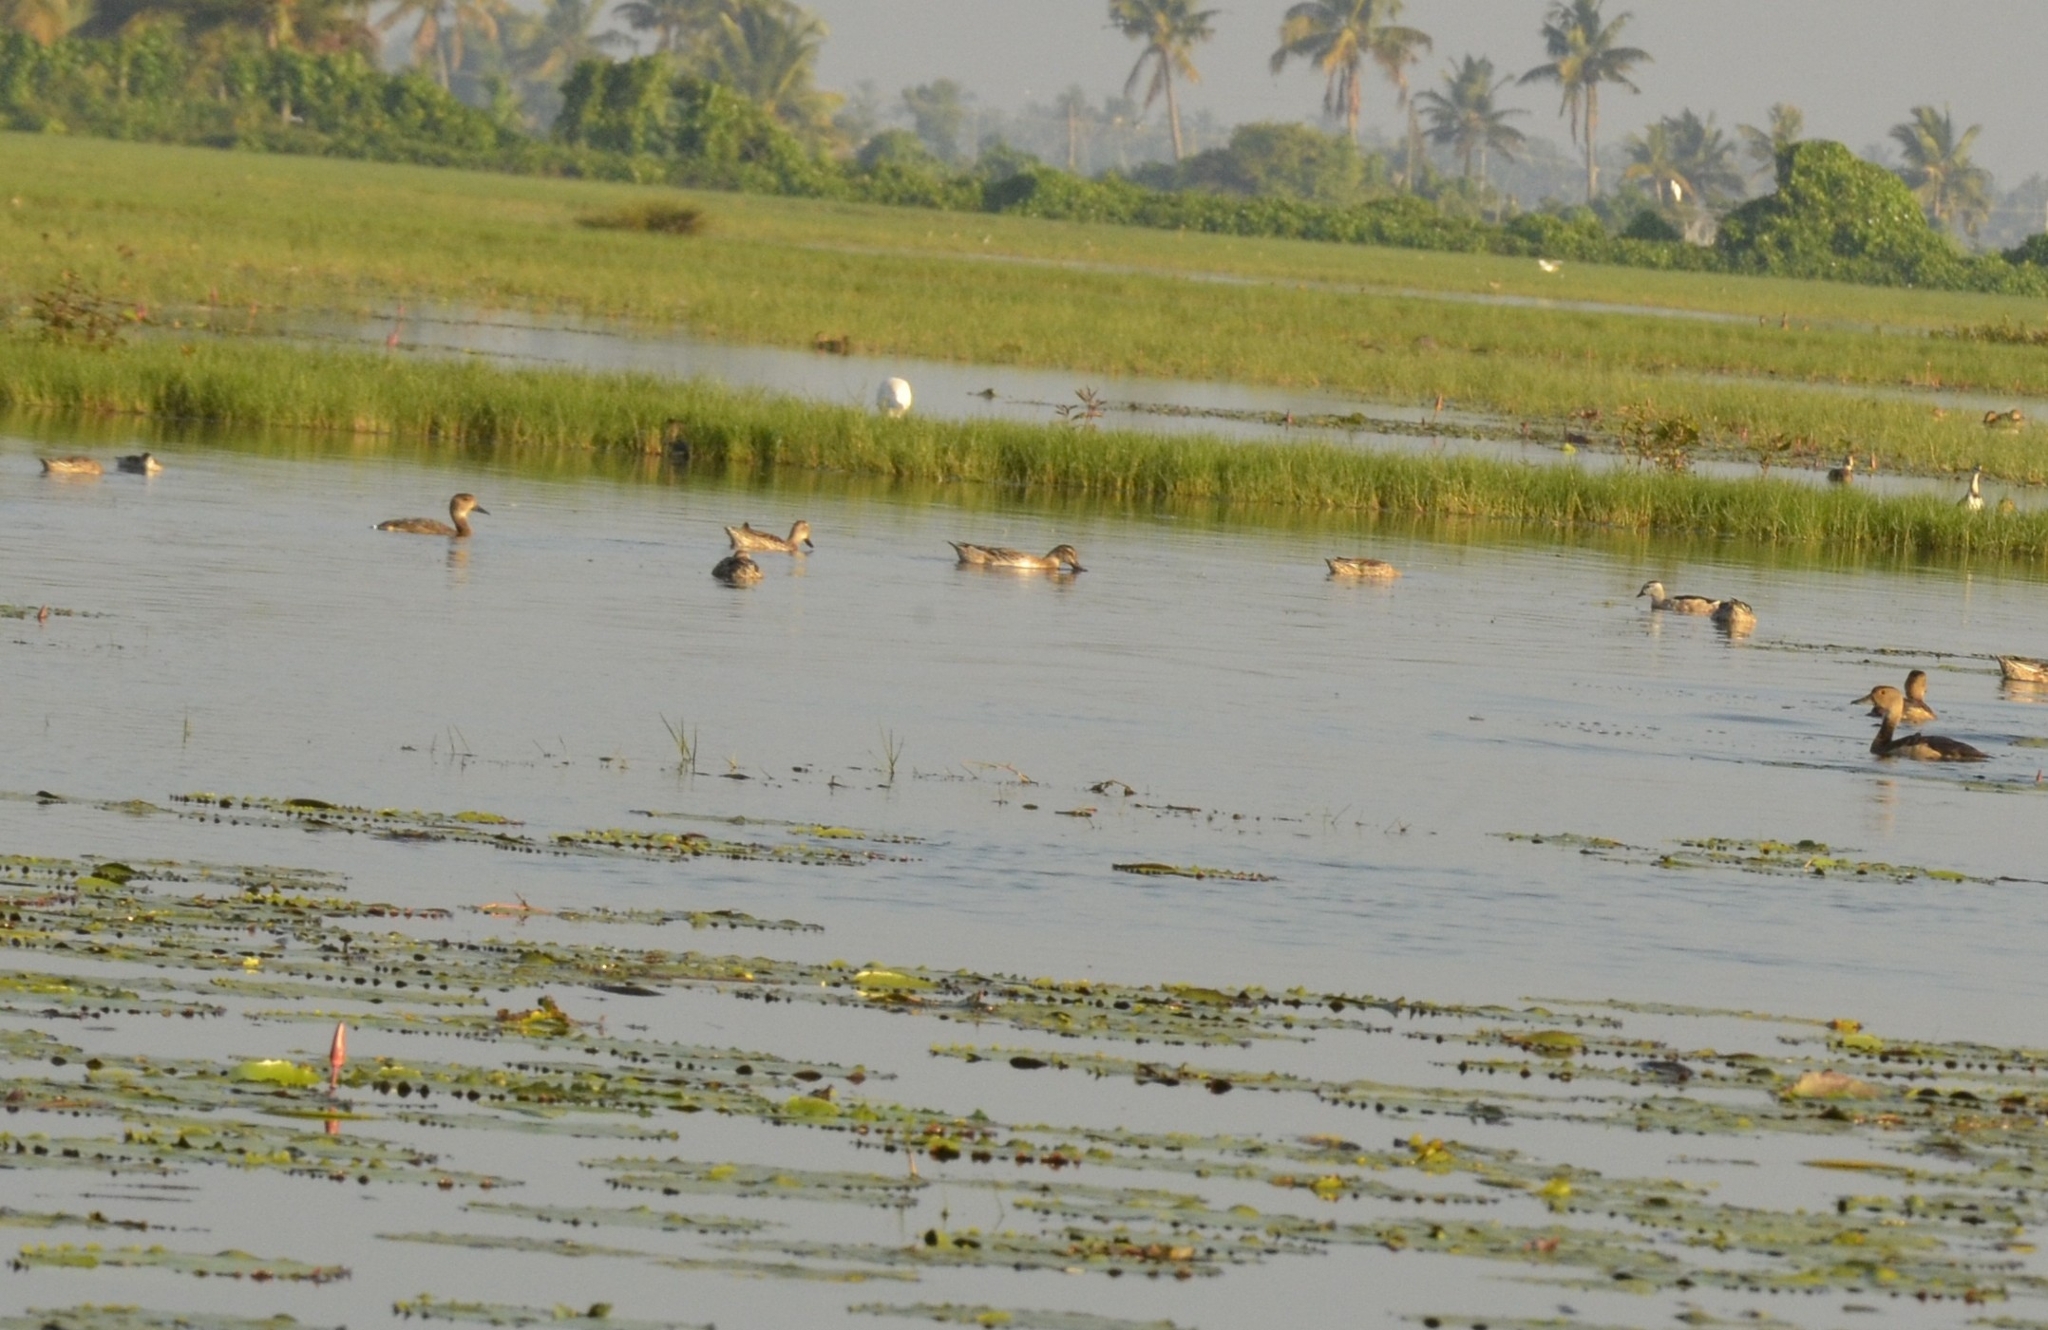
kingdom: Animalia
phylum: Chordata
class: Aves
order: Anseriformes
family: Anatidae
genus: Dendrocygna
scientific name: Dendrocygna javanica
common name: Lesser whistling-duck
